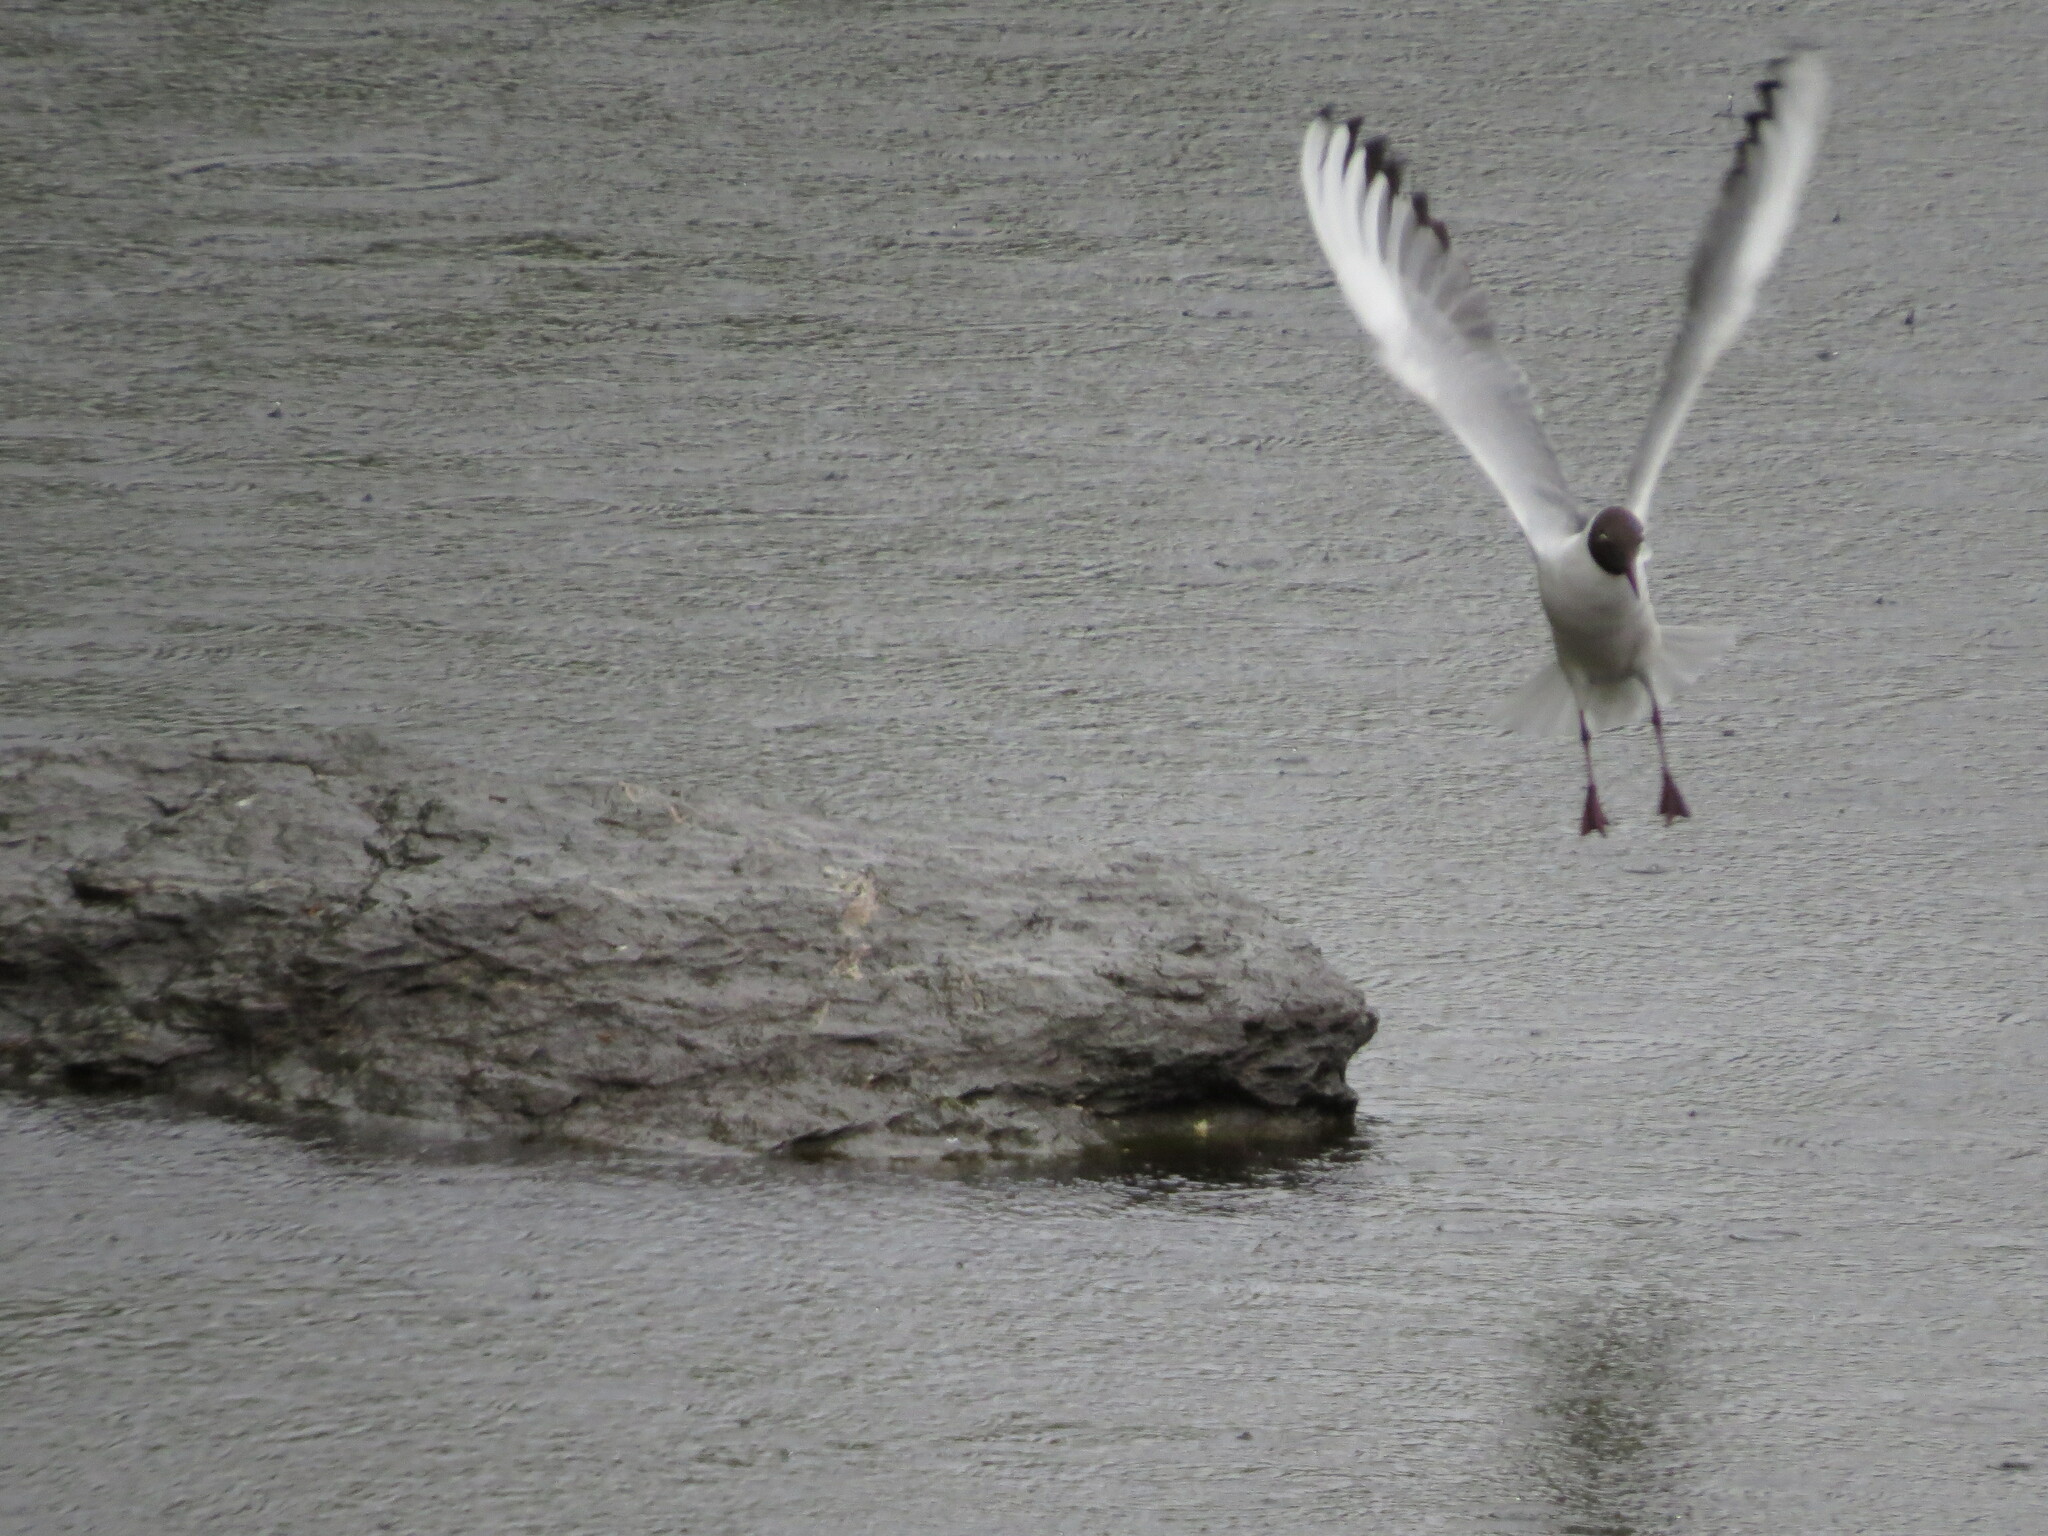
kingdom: Animalia
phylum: Chordata
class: Aves
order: Charadriiformes
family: Laridae
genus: Chroicocephalus
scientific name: Chroicocephalus ridibundus
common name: Black-headed gull
